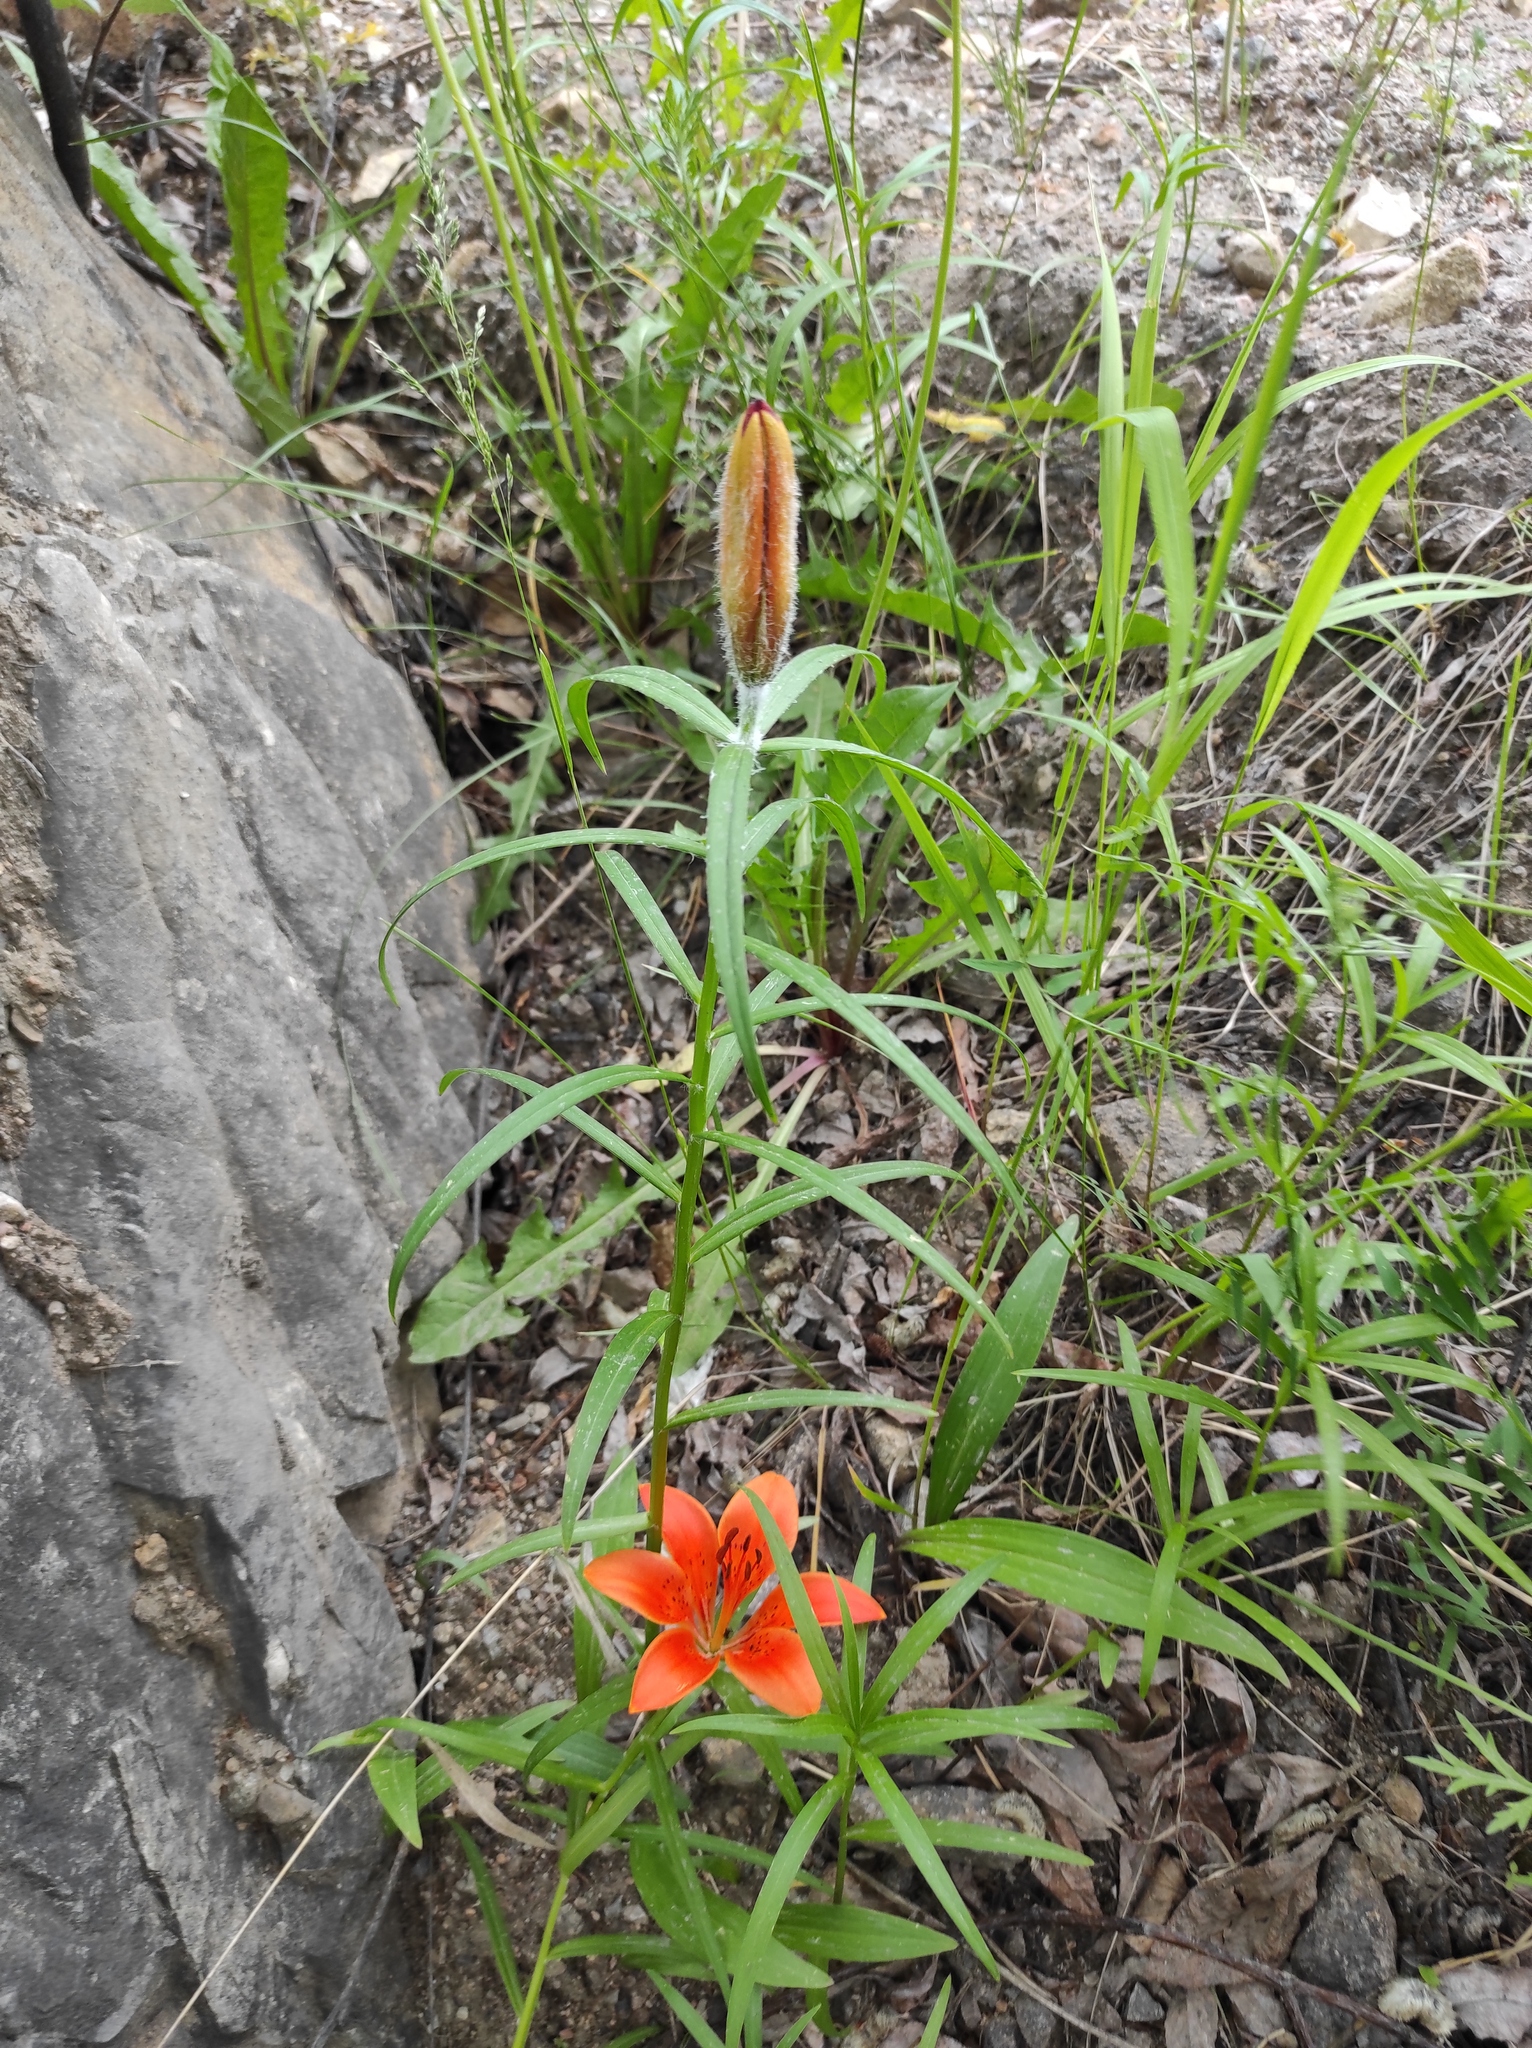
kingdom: Plantae
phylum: Tracheophyta
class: Liliopsida
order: Liliales
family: Liliaceae
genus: Lilium
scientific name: Lilium pensylvanicum
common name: Candlestick lily
